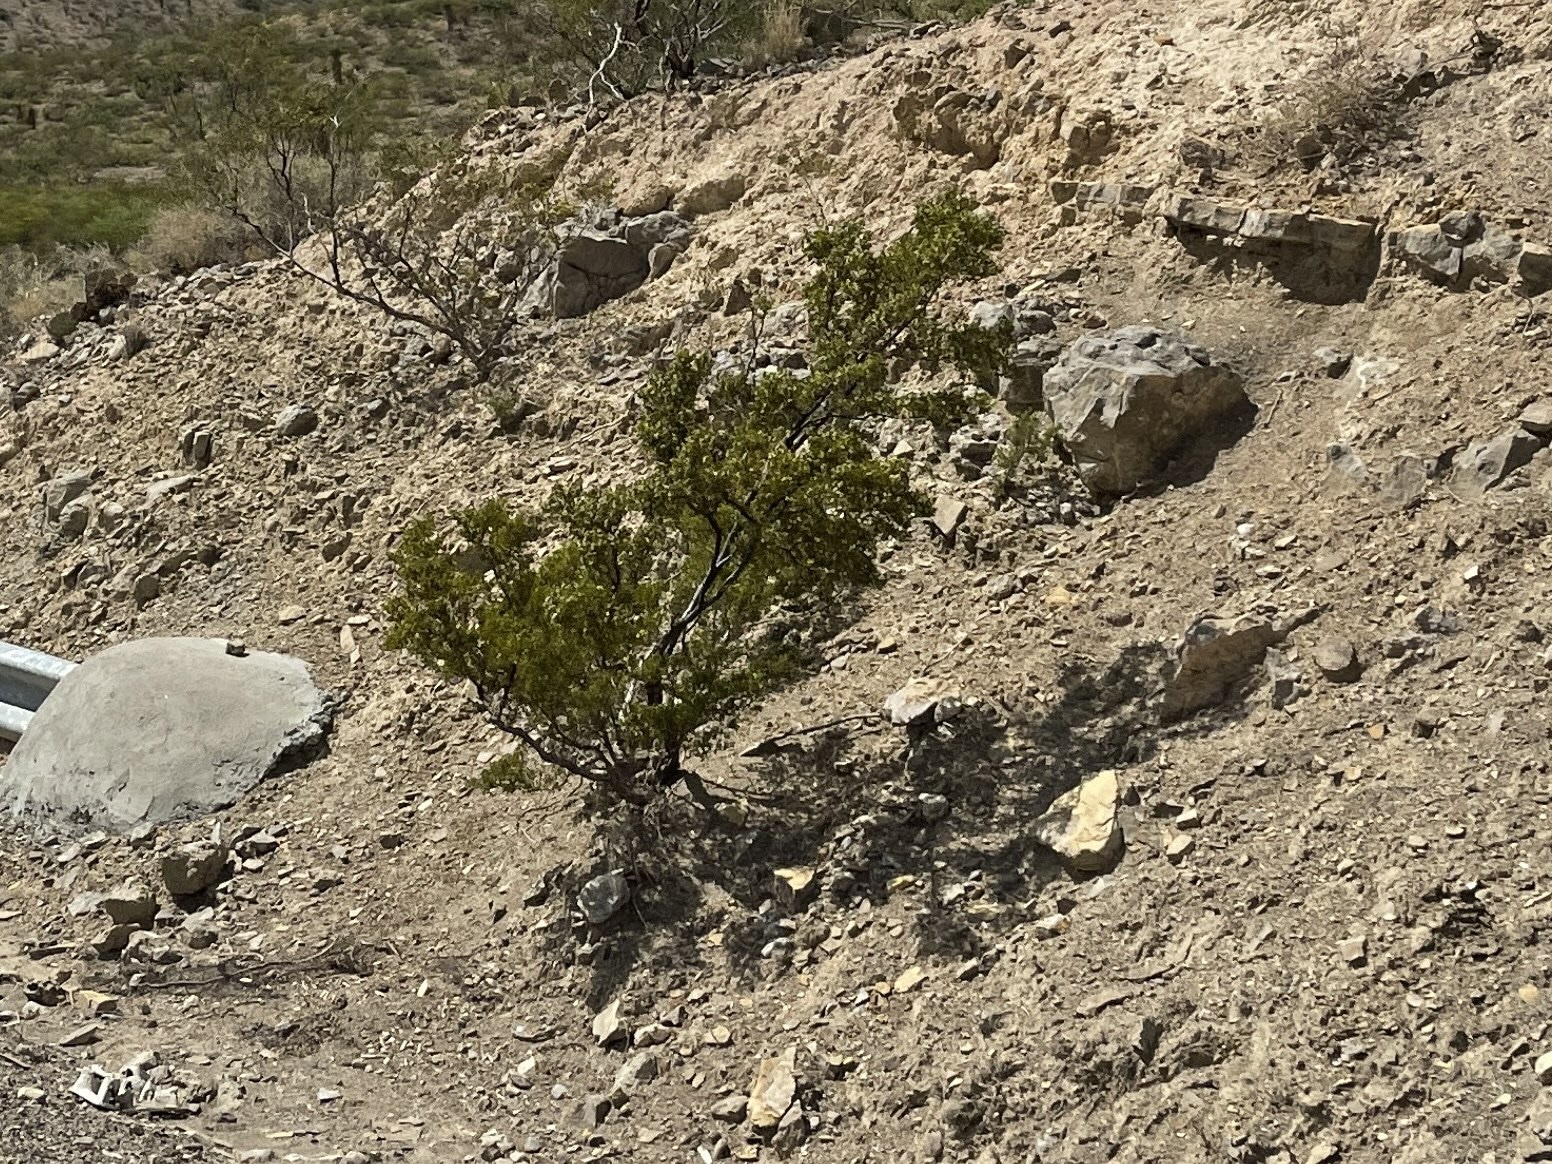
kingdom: Plantae
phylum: Tracheophyta
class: Magnoliopsida
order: Zygophyllales
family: Zygophyllaceae
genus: Larrea
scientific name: Larrea tridentata
